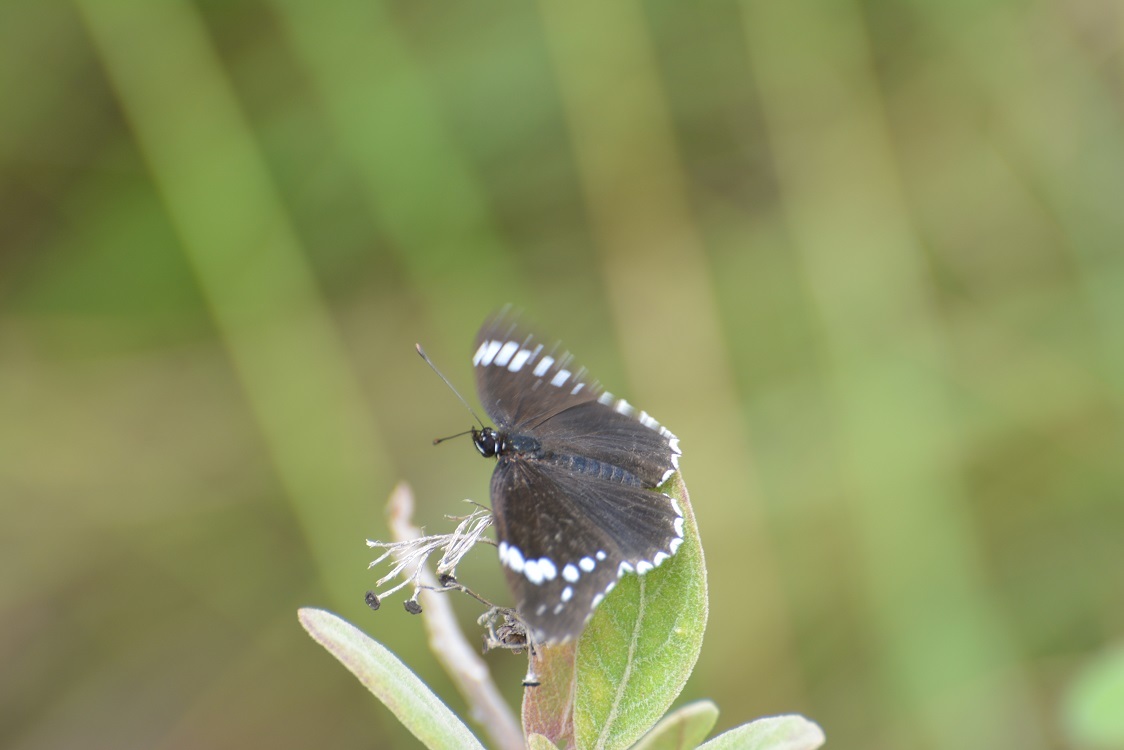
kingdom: Animalia
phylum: Arthropoda
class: Insecta
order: Lepidoptera
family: Nymphalidae
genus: Chlosyne
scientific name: Chlosyne hippodrome
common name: Simple patch
